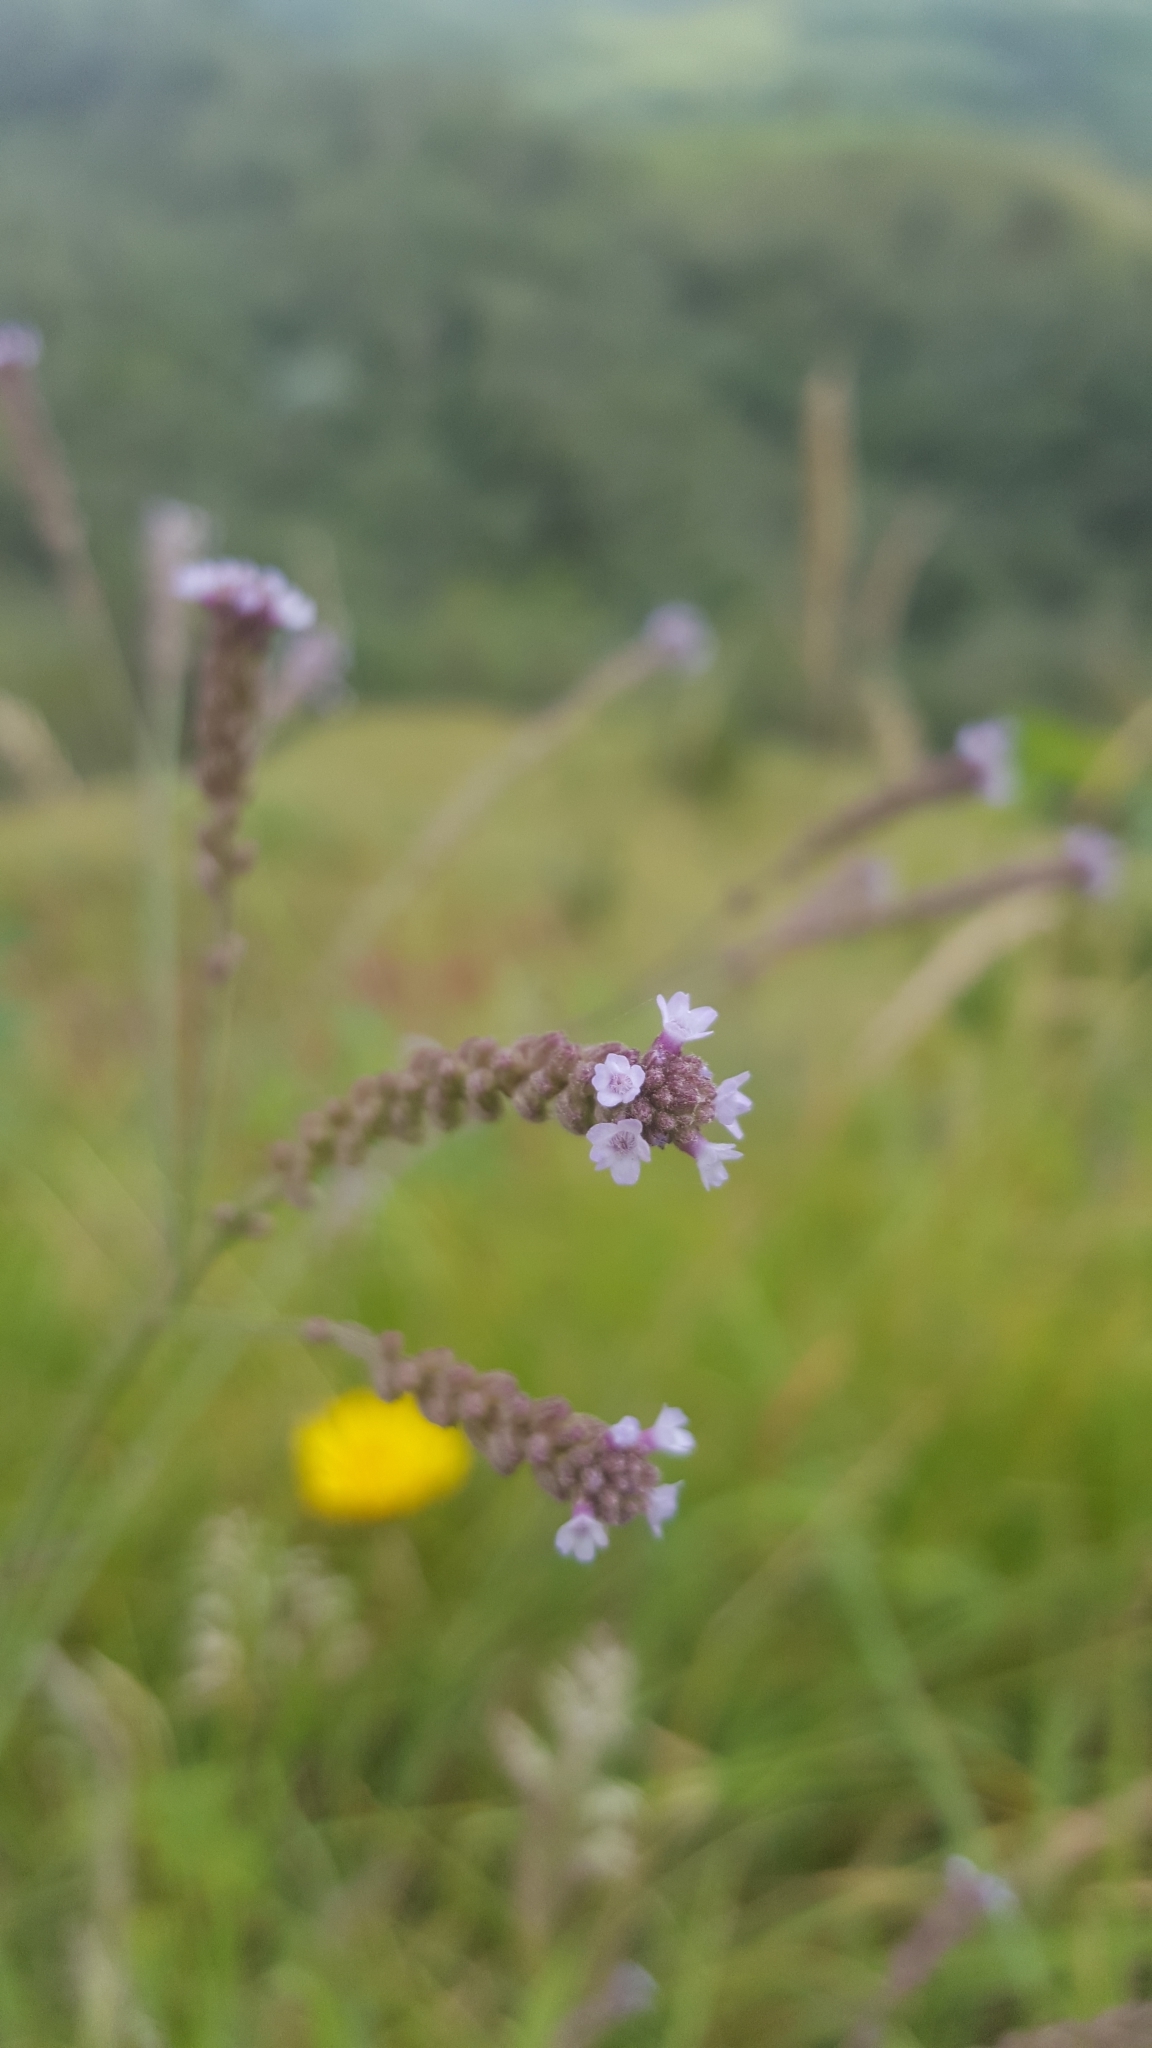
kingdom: Plantae
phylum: Tracheophyta
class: Magnoliopsida
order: Lamiales
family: Verbenaceae
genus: Verbena
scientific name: Verbena litoralis
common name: Seashore vervain
